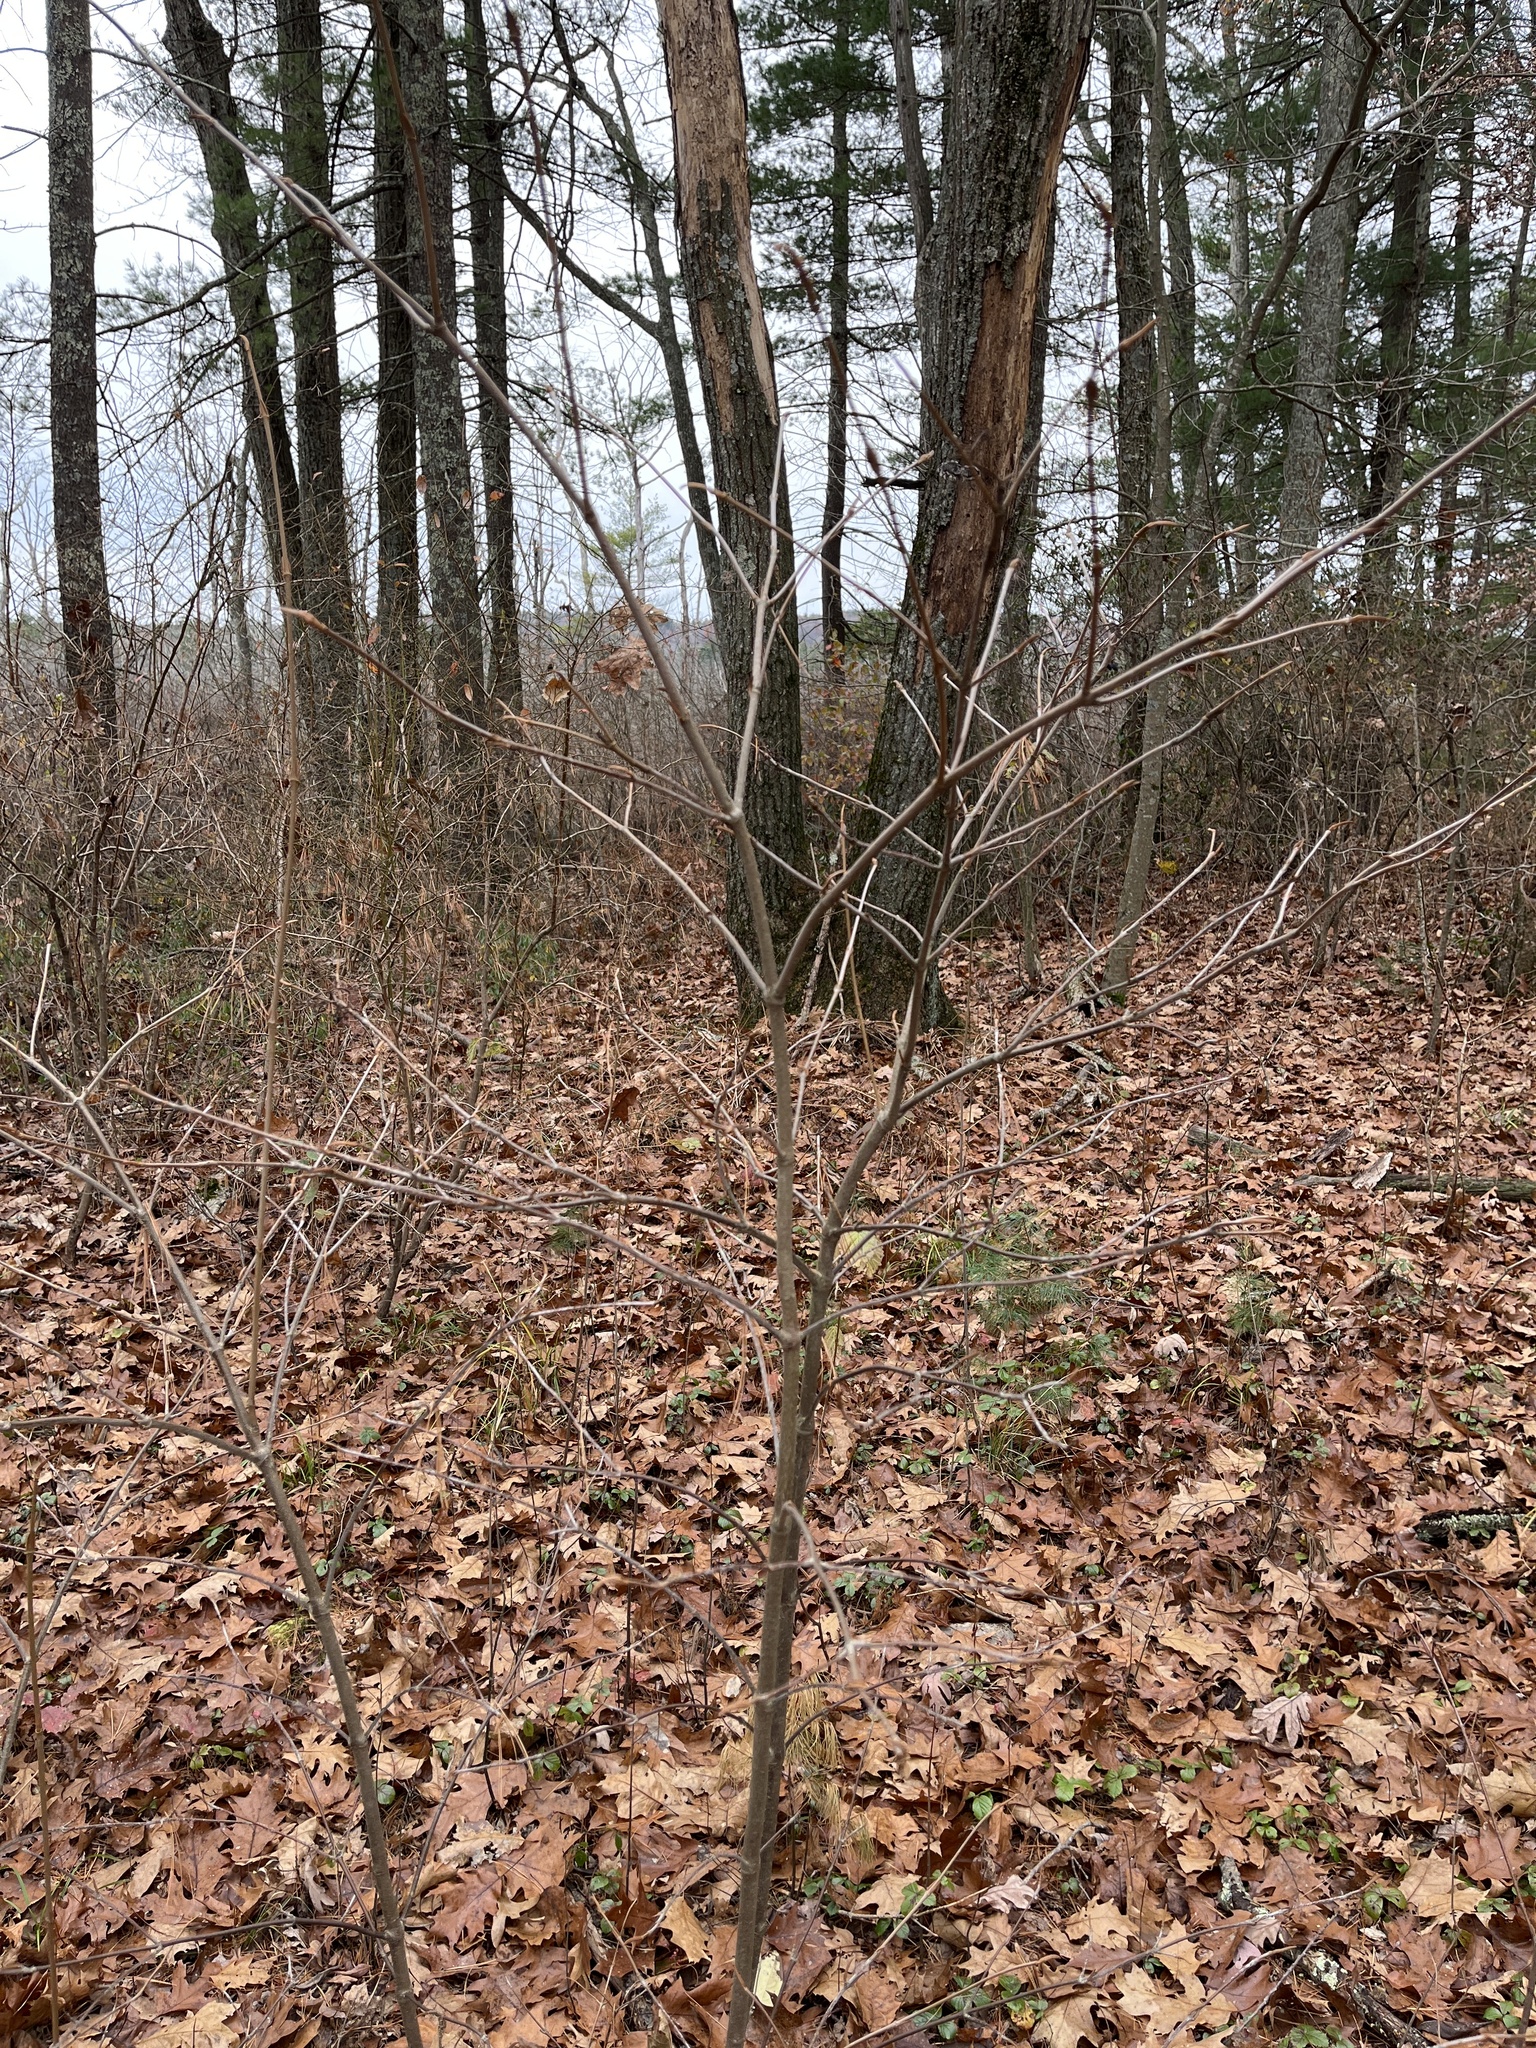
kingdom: Plantae
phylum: Tracheophyta
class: Magnoliopsida
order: Dipsacales
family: Viburnaceae
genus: Viburnum
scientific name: Viburnum cassinoides
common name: Swamp haw
